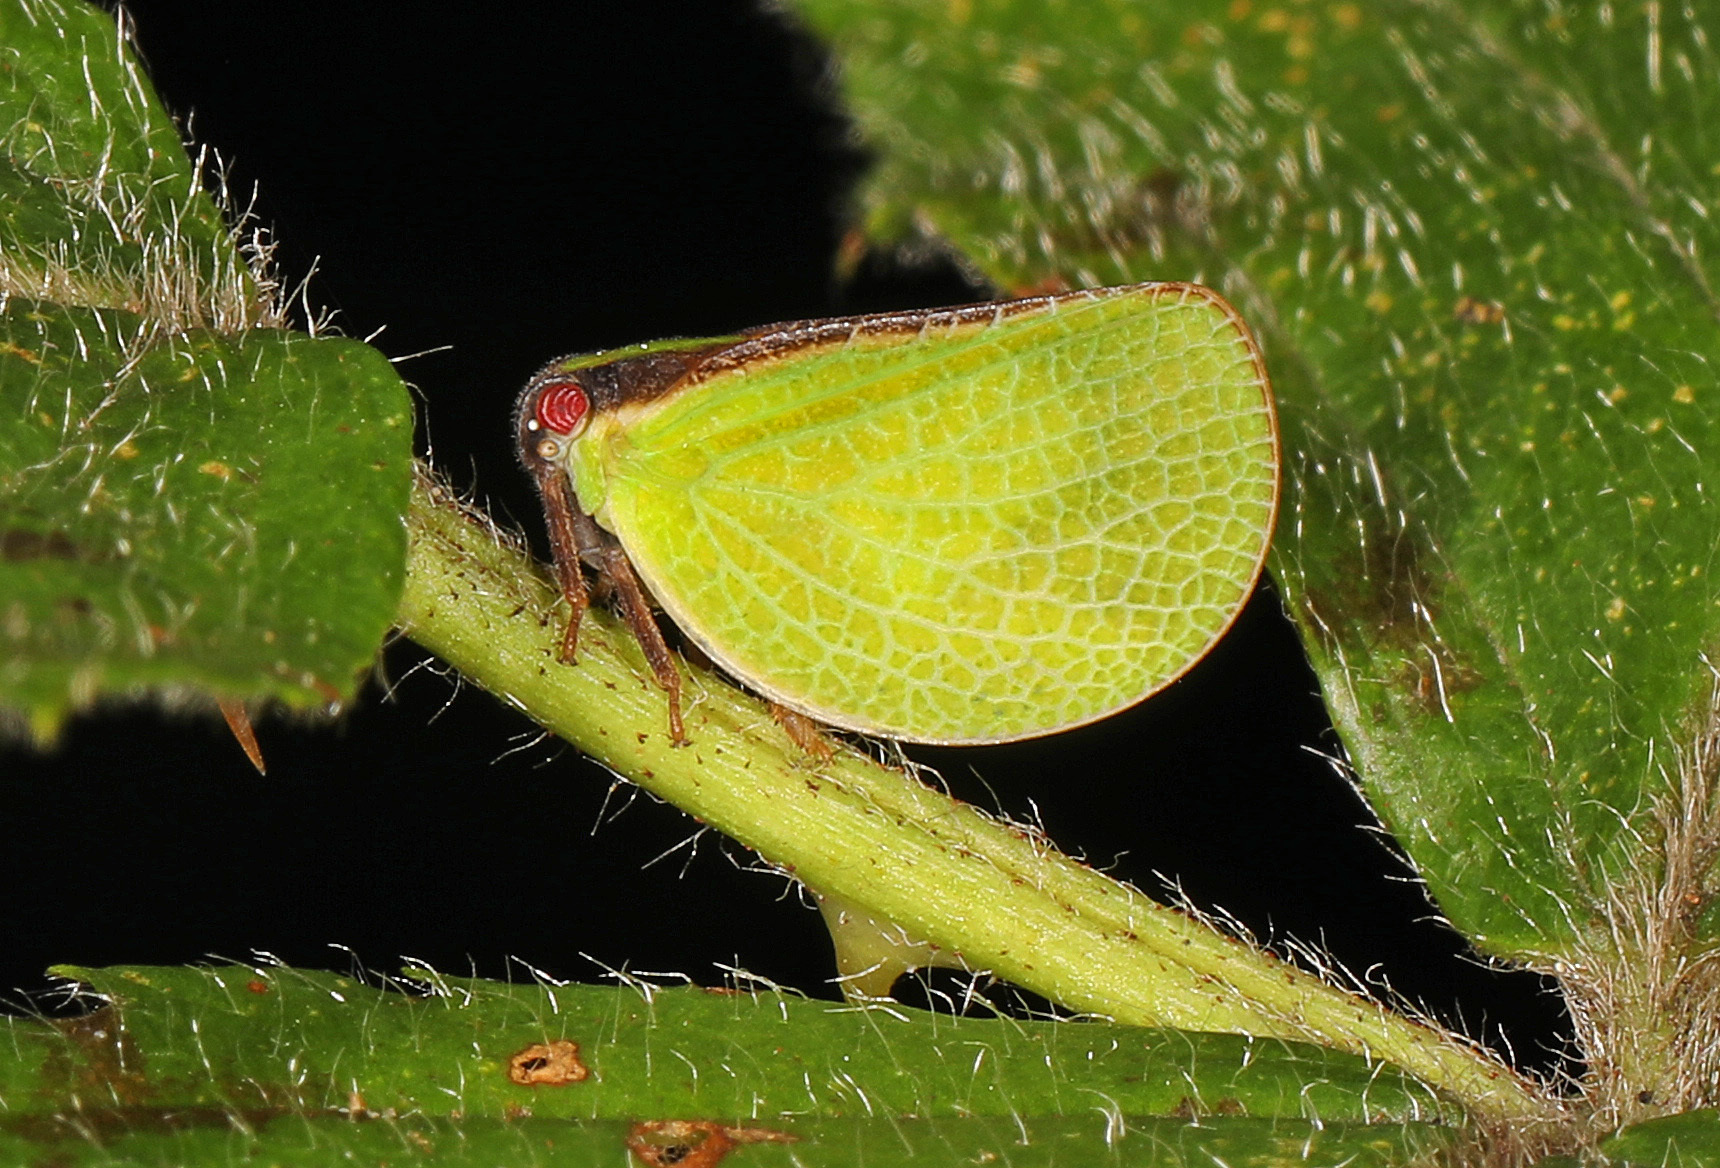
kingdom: Animalia
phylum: Arthropoda
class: Insecta
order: Hemiptera
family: Acanaloniidae
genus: Acanalonia
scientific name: Acanalonia bivittata
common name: Two-striped planthopper
